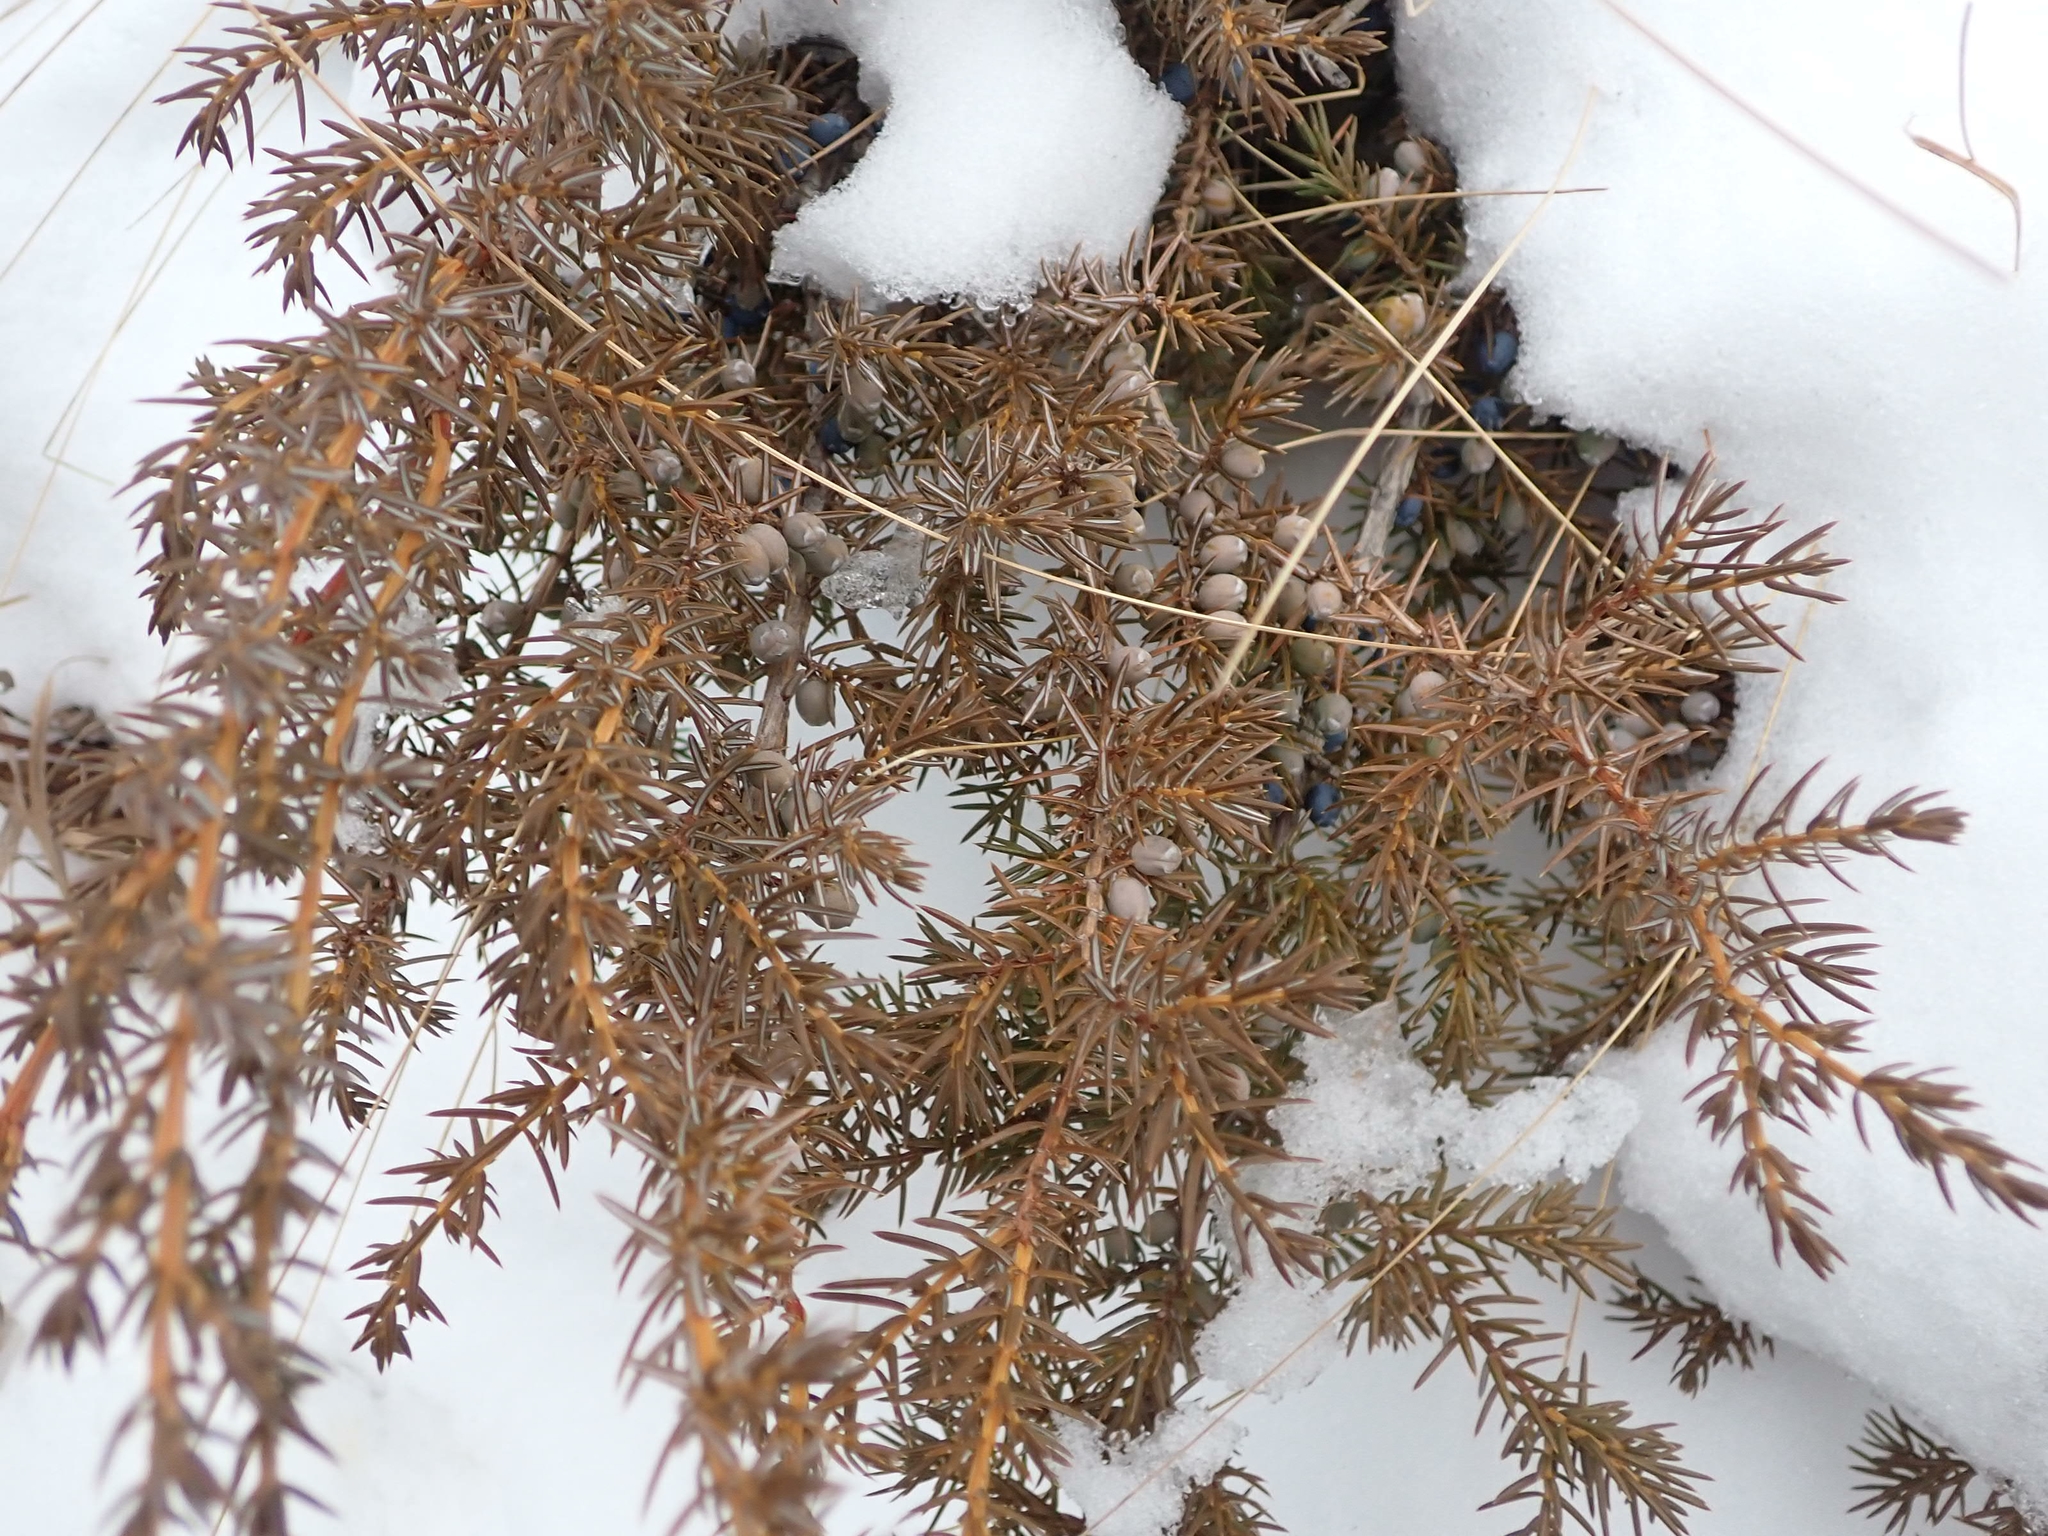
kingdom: Plantae
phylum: Tracheophyta
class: Pinopsida
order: Pinales
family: Cupressaceae
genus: Juniperus
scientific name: Juniperus communis
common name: Common juniper
